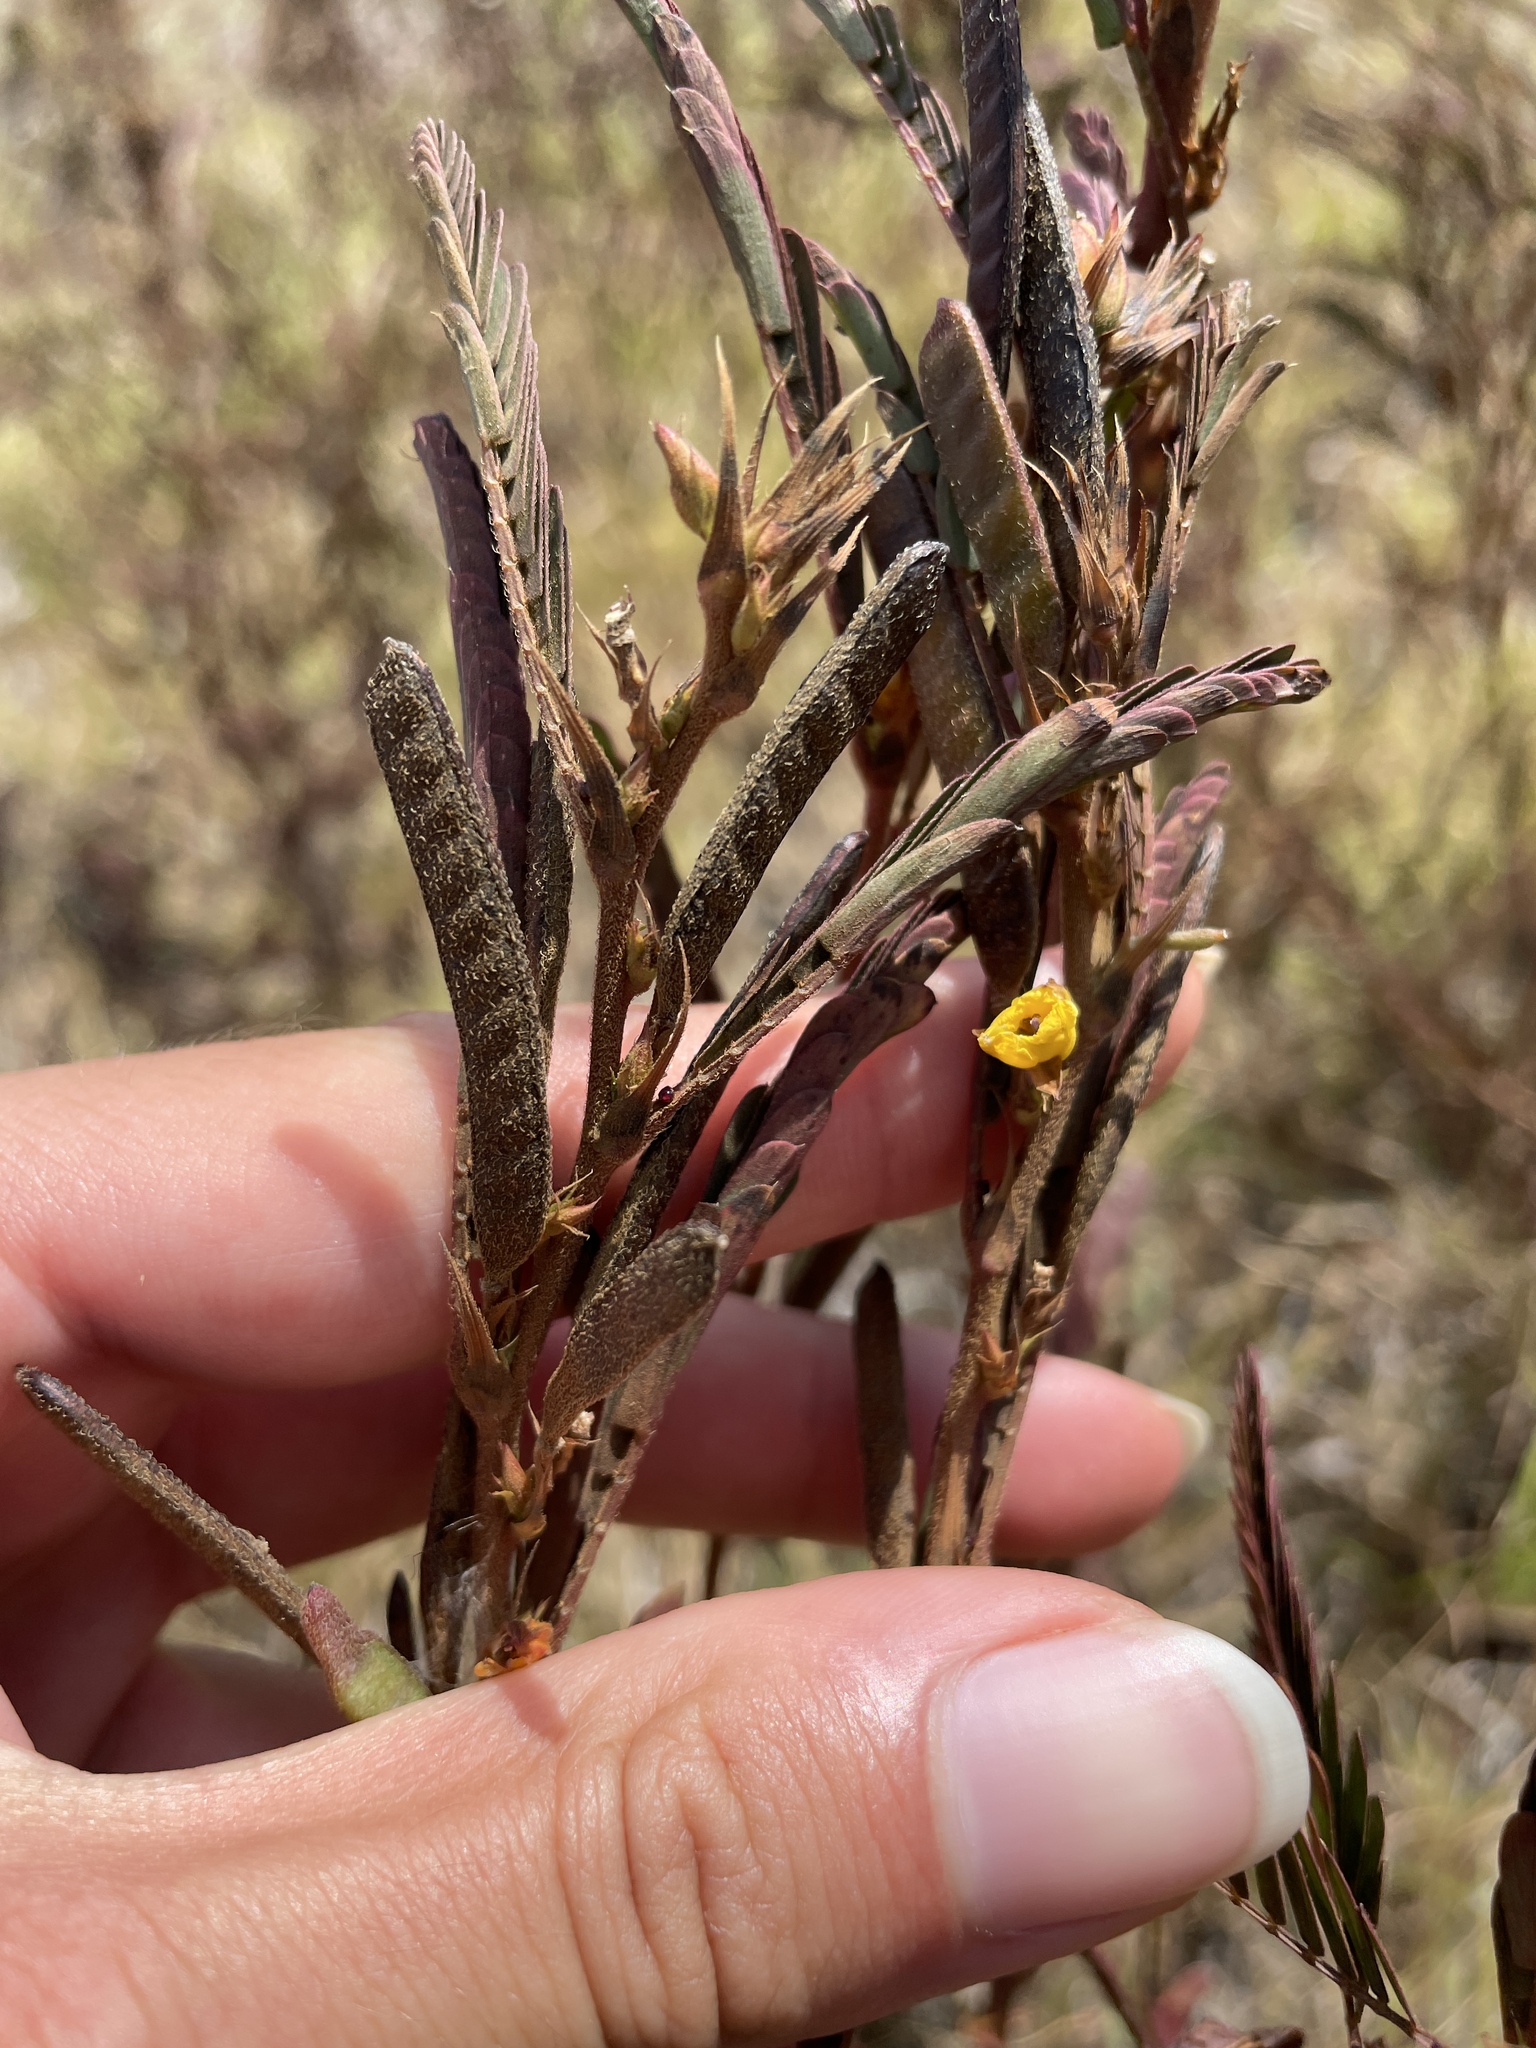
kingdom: Plantae
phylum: Tracheophyta
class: Magnoliopsida
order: Fabales
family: Fabaceae
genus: Chamaecrista
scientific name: Chamaecrista nictitans
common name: Sensitive cassia
